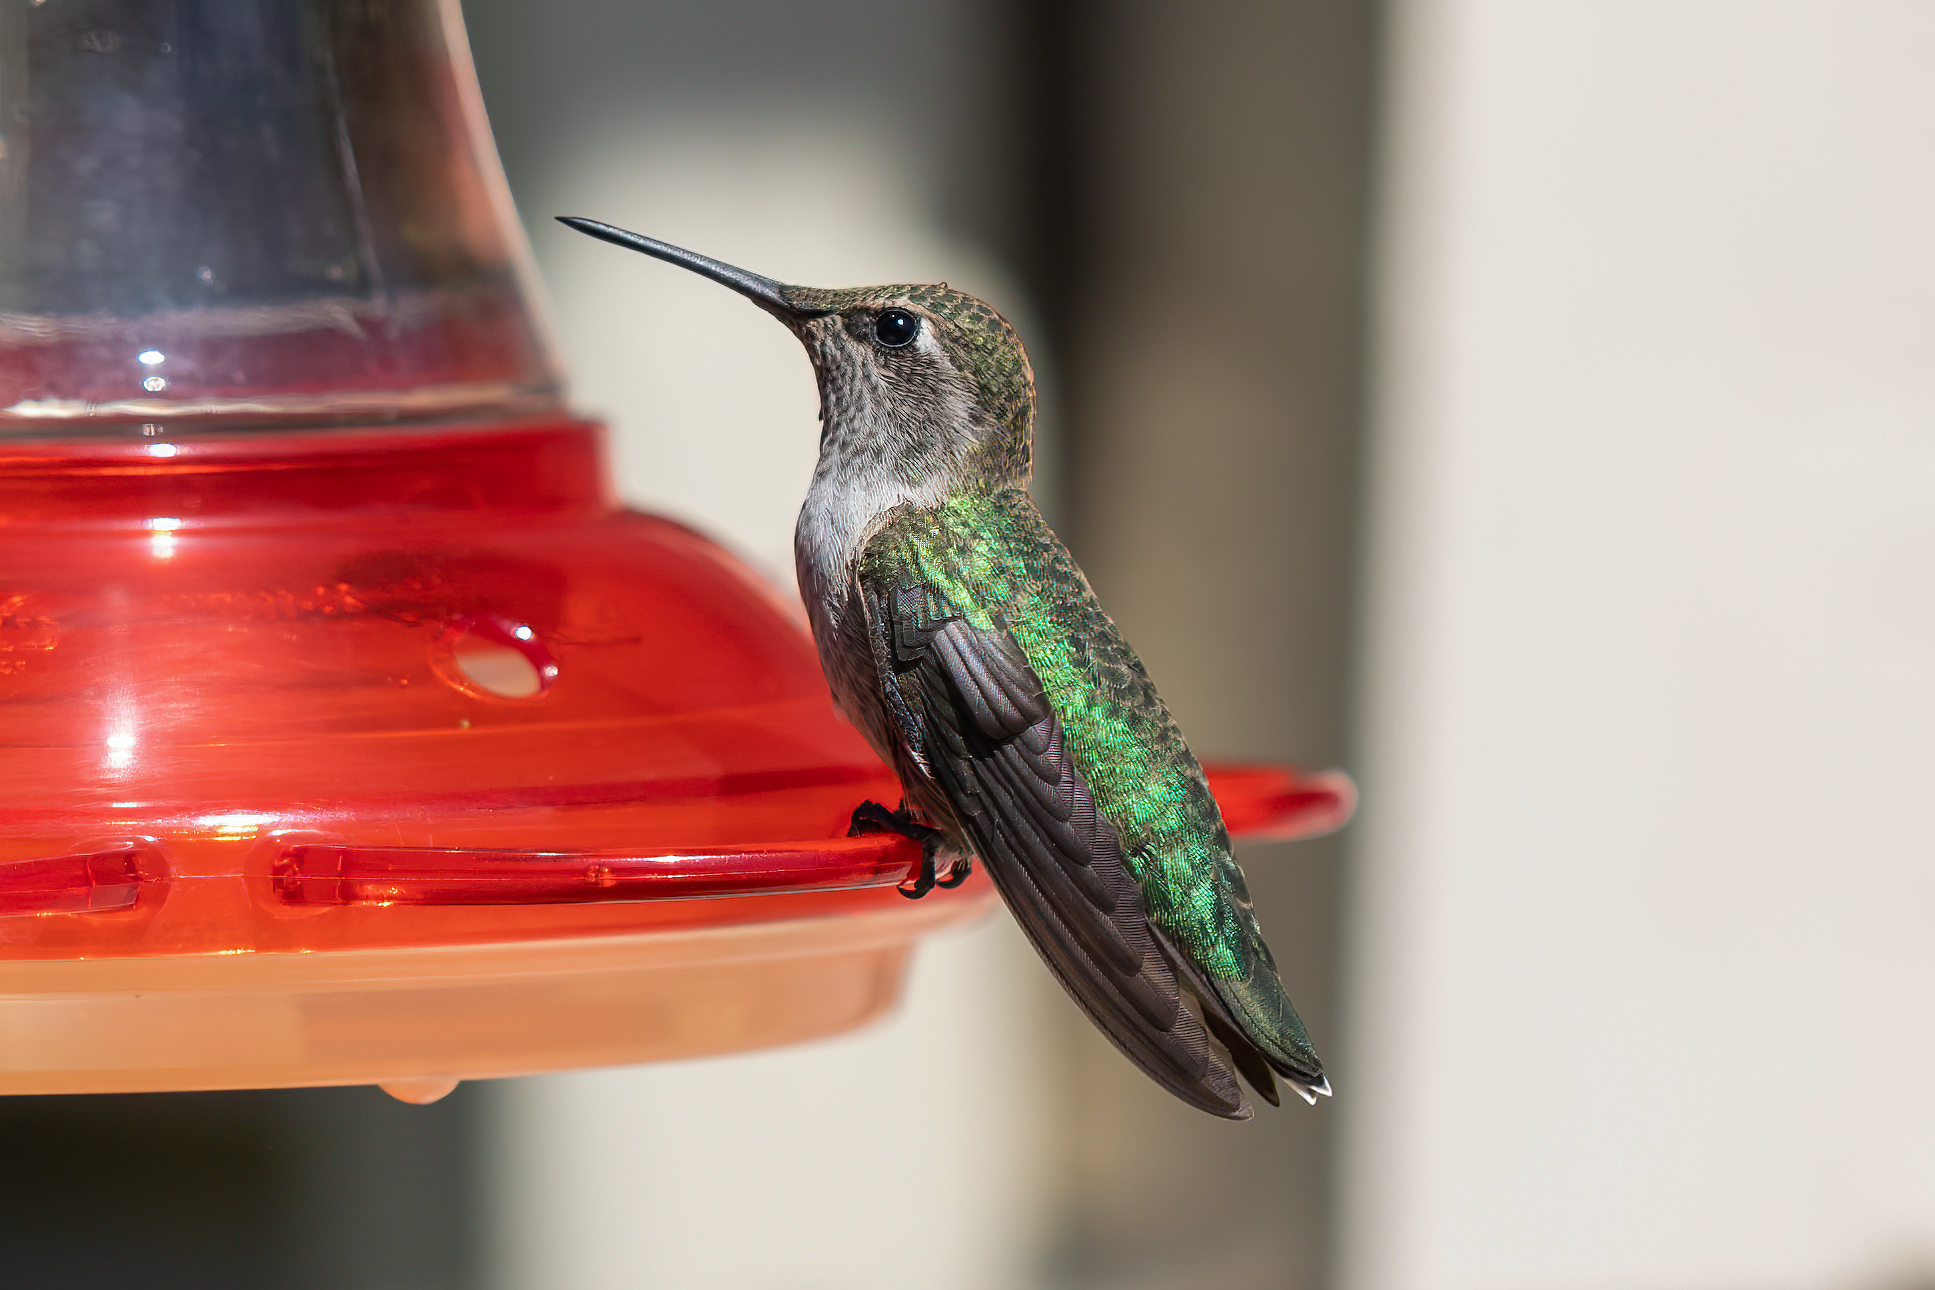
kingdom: Animalia
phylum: Chordata
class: Aves
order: Apodiformes
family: Trochilidae
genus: Calypte
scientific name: Calypte anna
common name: Anna's hummingbird
